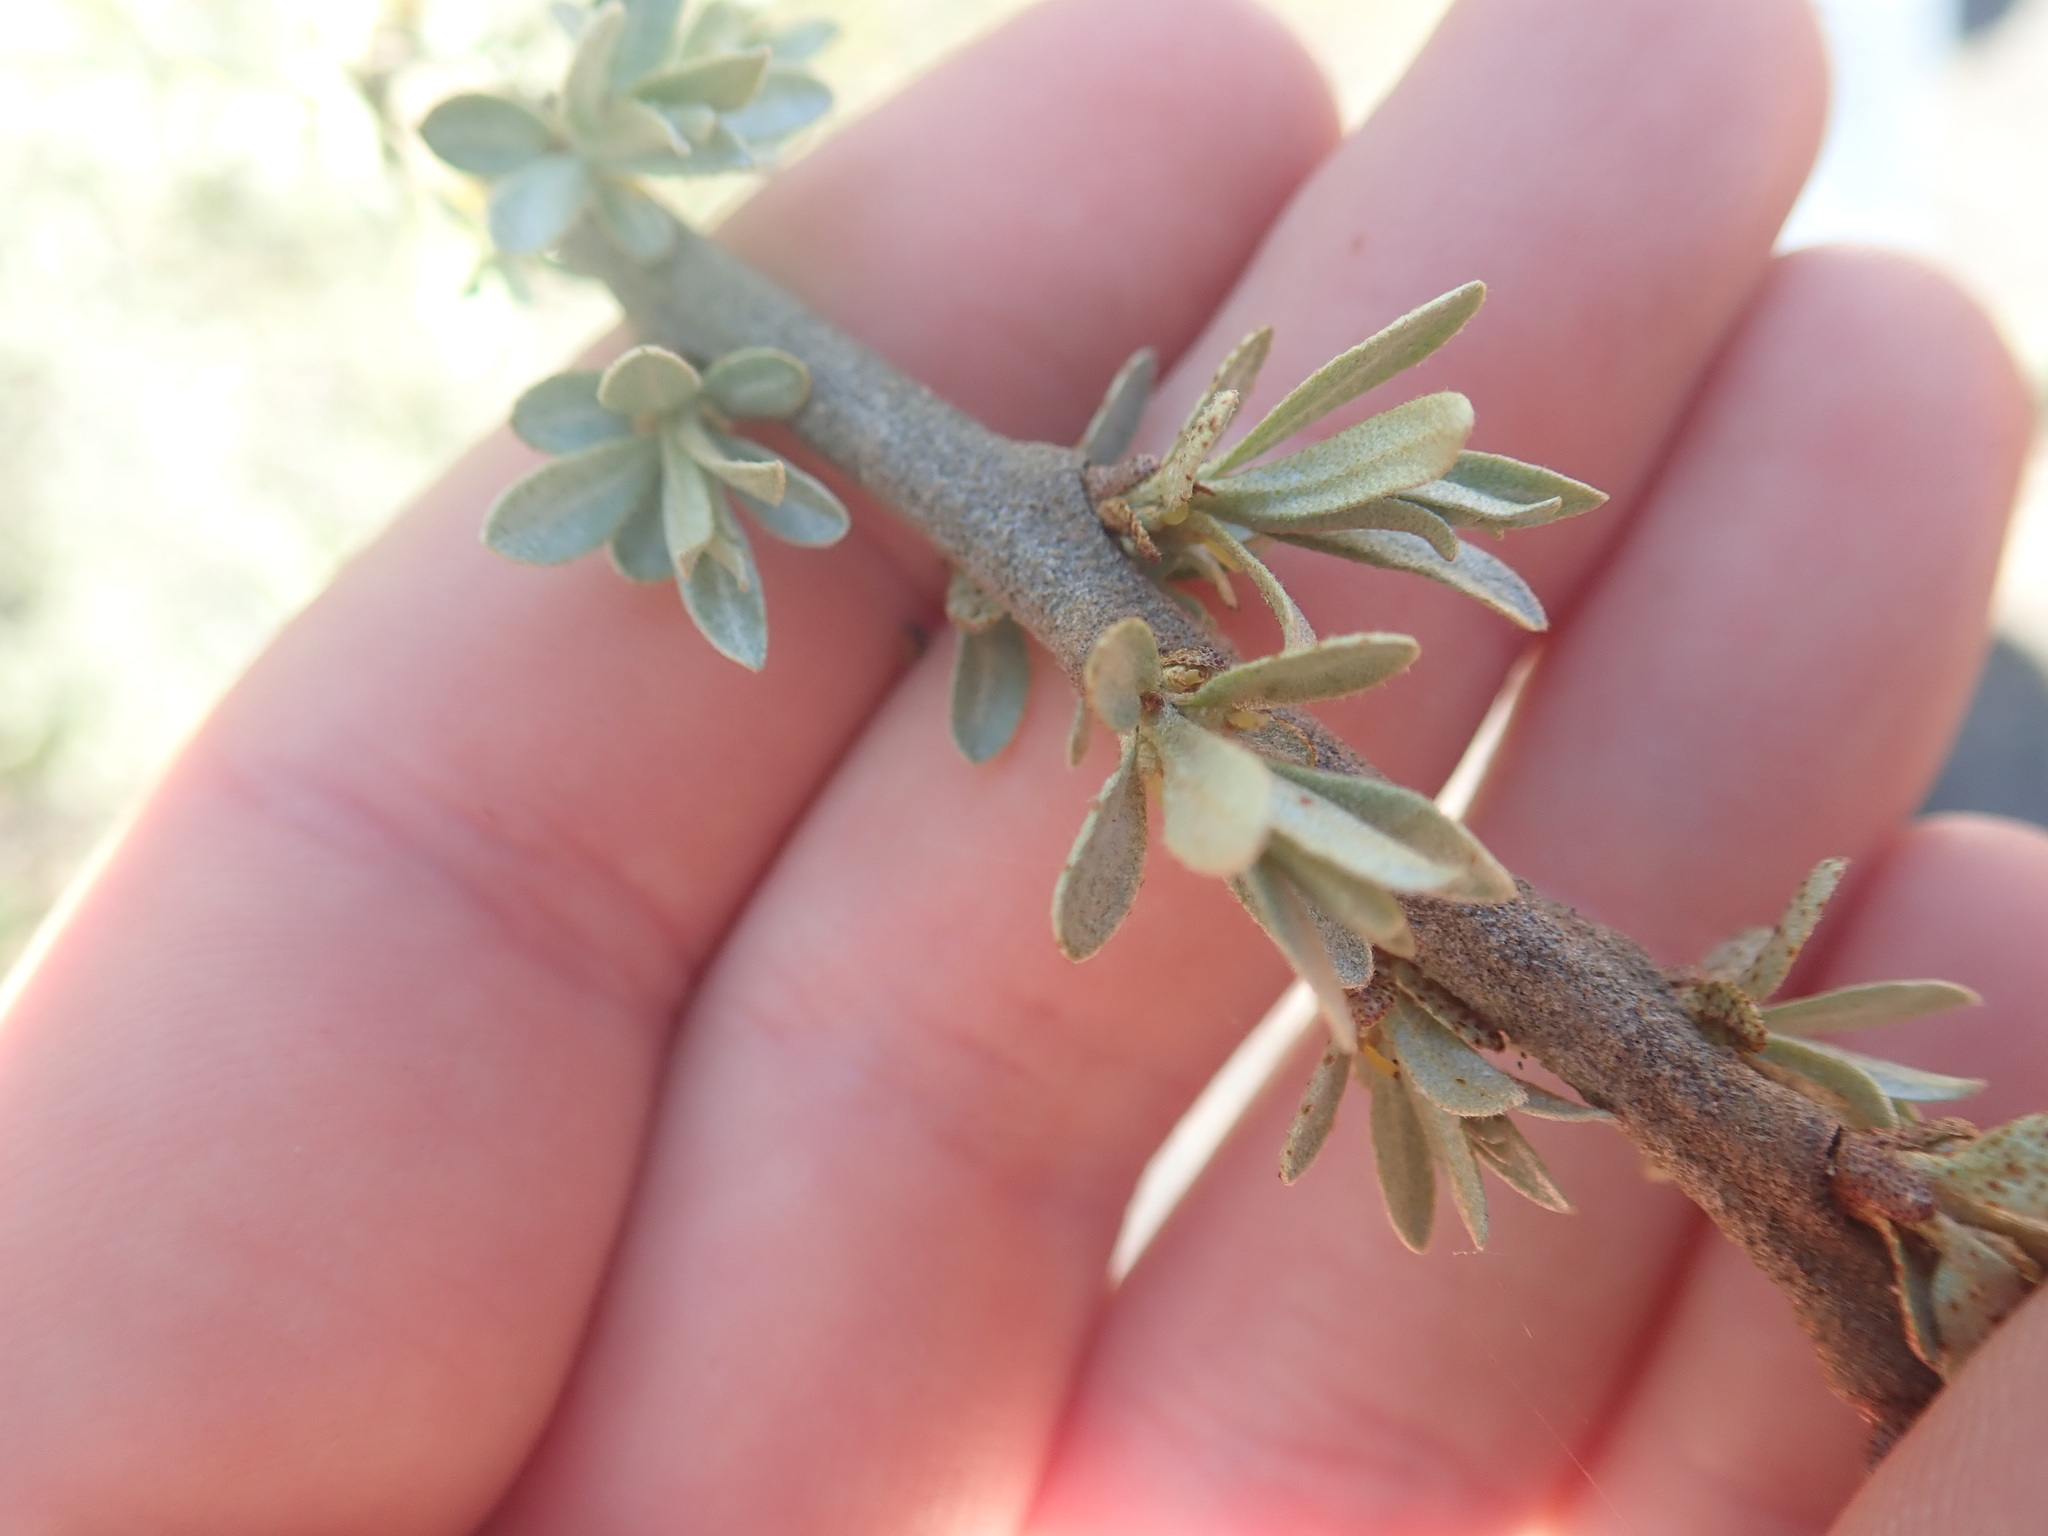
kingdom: Plantae
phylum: Tracheophyta
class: Magnoliopsida
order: Rosales
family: Elaeagnaceae
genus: Hippophae
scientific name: Hippophae rhamnoides
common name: Sea-buckthorn
